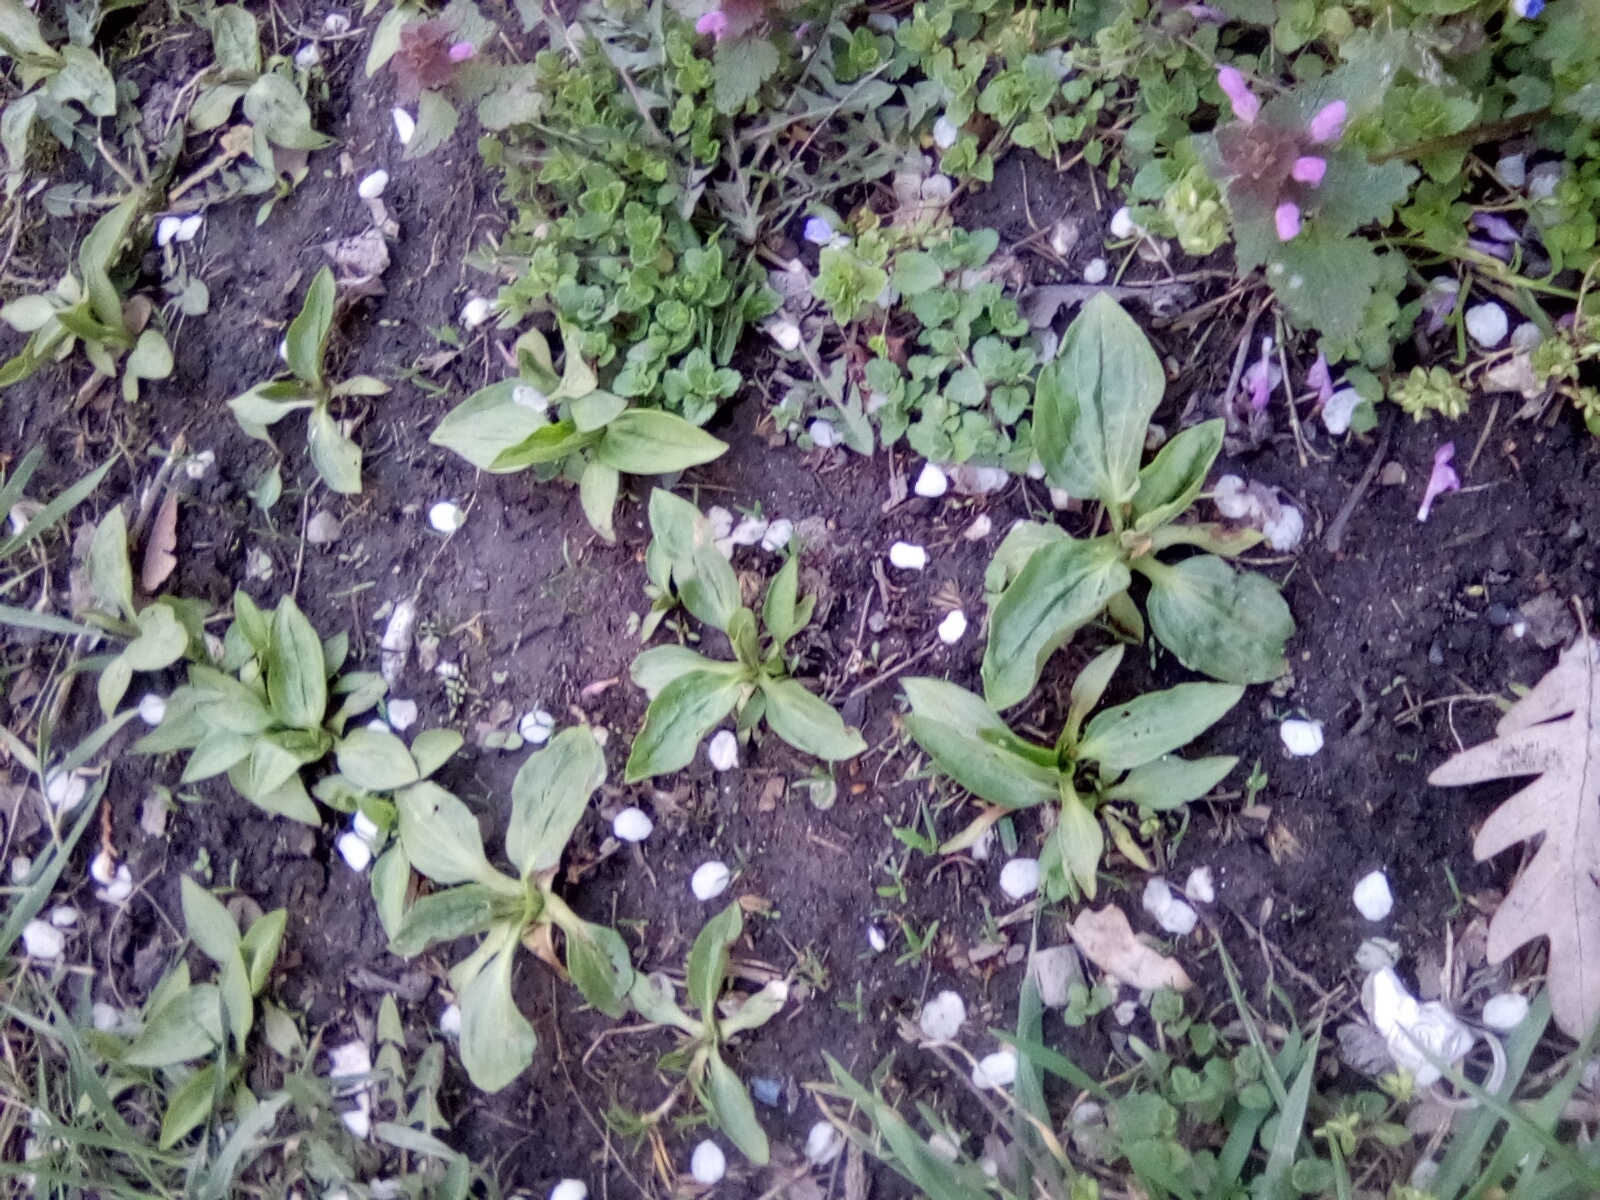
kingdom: Plantae
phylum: Tracheophyta
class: Magnoliopsida
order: Lamiales
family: Plantaginaceae
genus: Plantago
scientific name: Plantago major
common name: Common plantain
